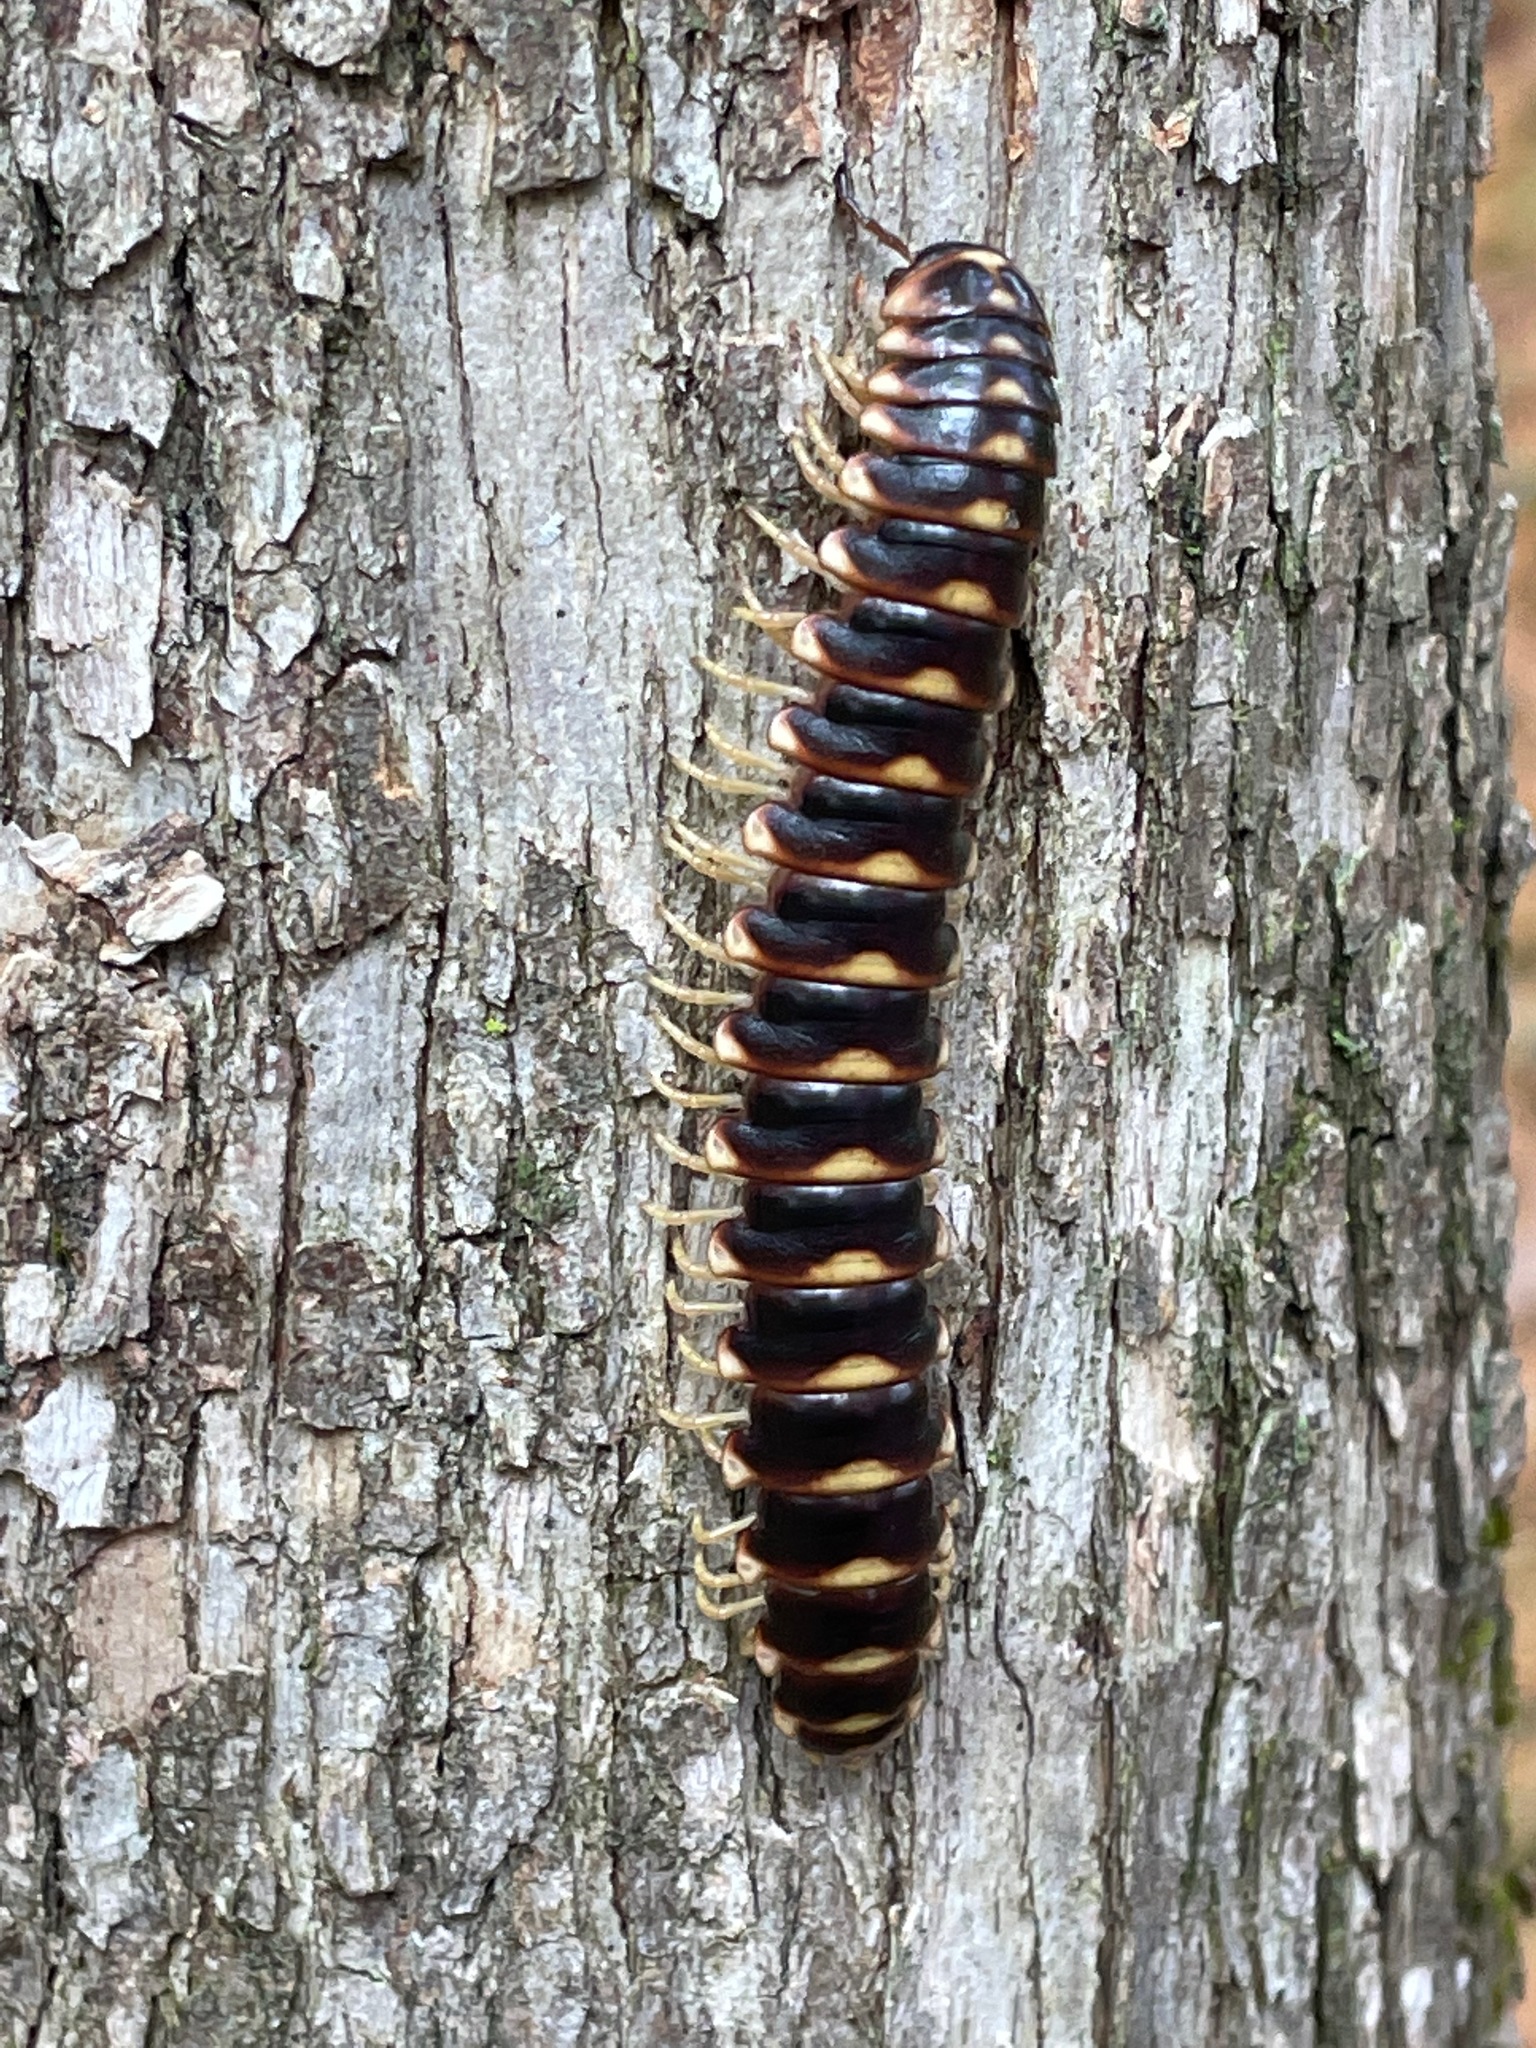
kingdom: Animalia
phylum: Arthropoda
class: Diplopoda
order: Polydesmida
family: Xystodesmidae
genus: Rudiloria
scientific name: Rudiloria trimaculata
